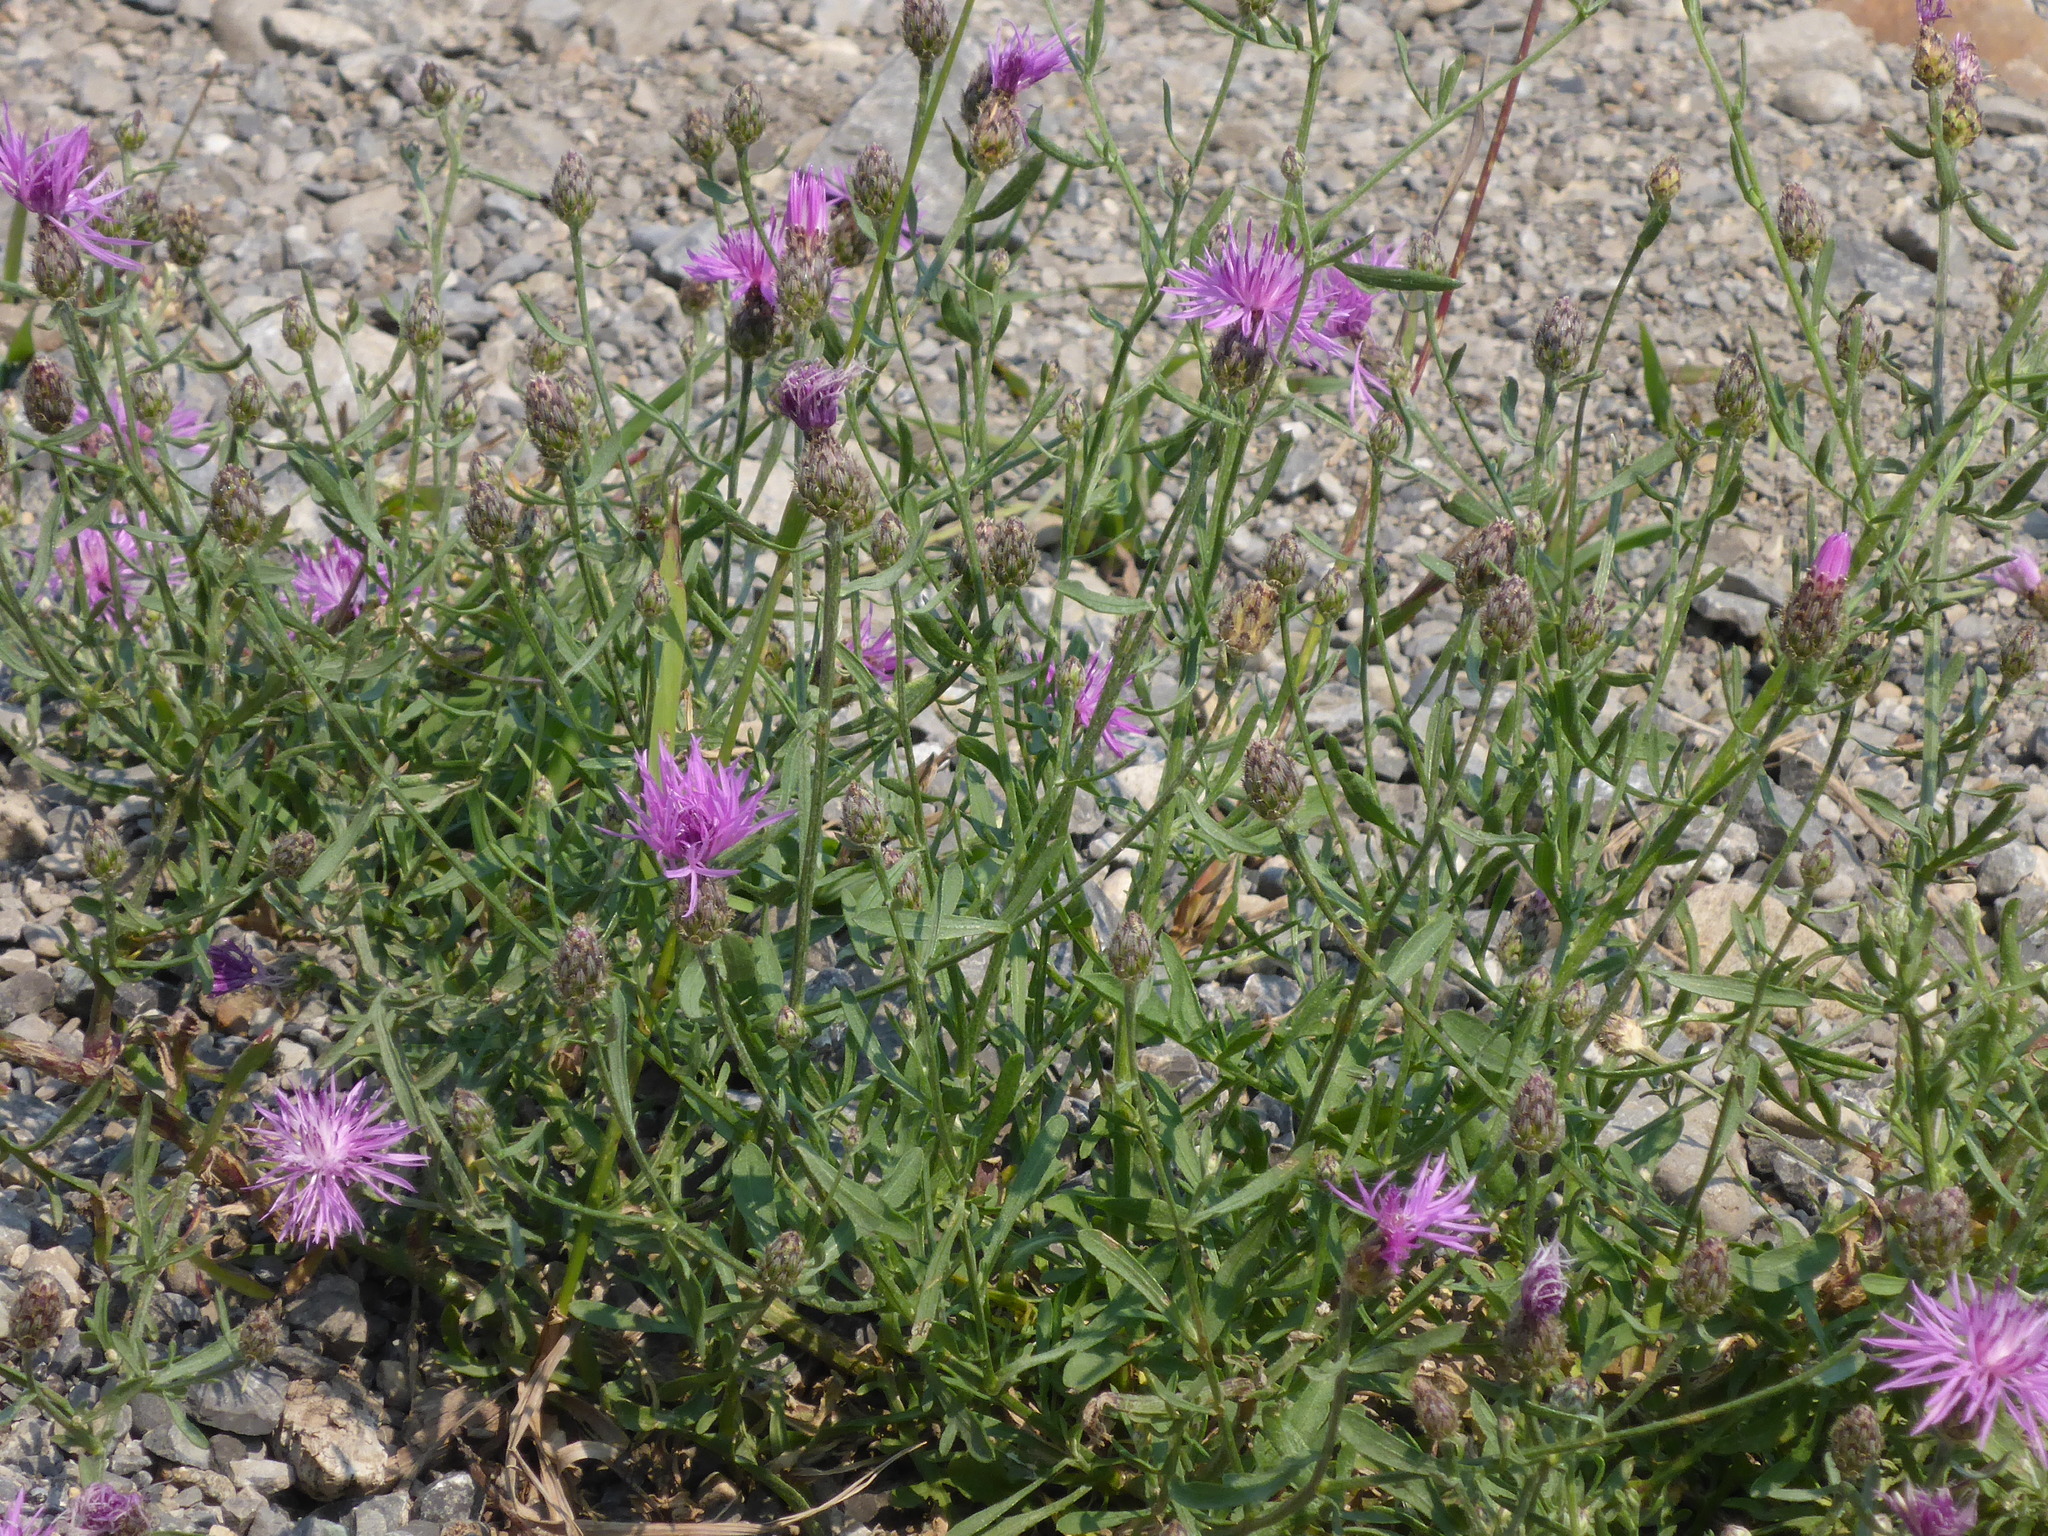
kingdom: Plantae
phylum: Tracheophyta
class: Magnoliopsida
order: Asterales
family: Asteraceae
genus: Centaurea
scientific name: Centaurea stoebe
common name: Spotted knapweed
